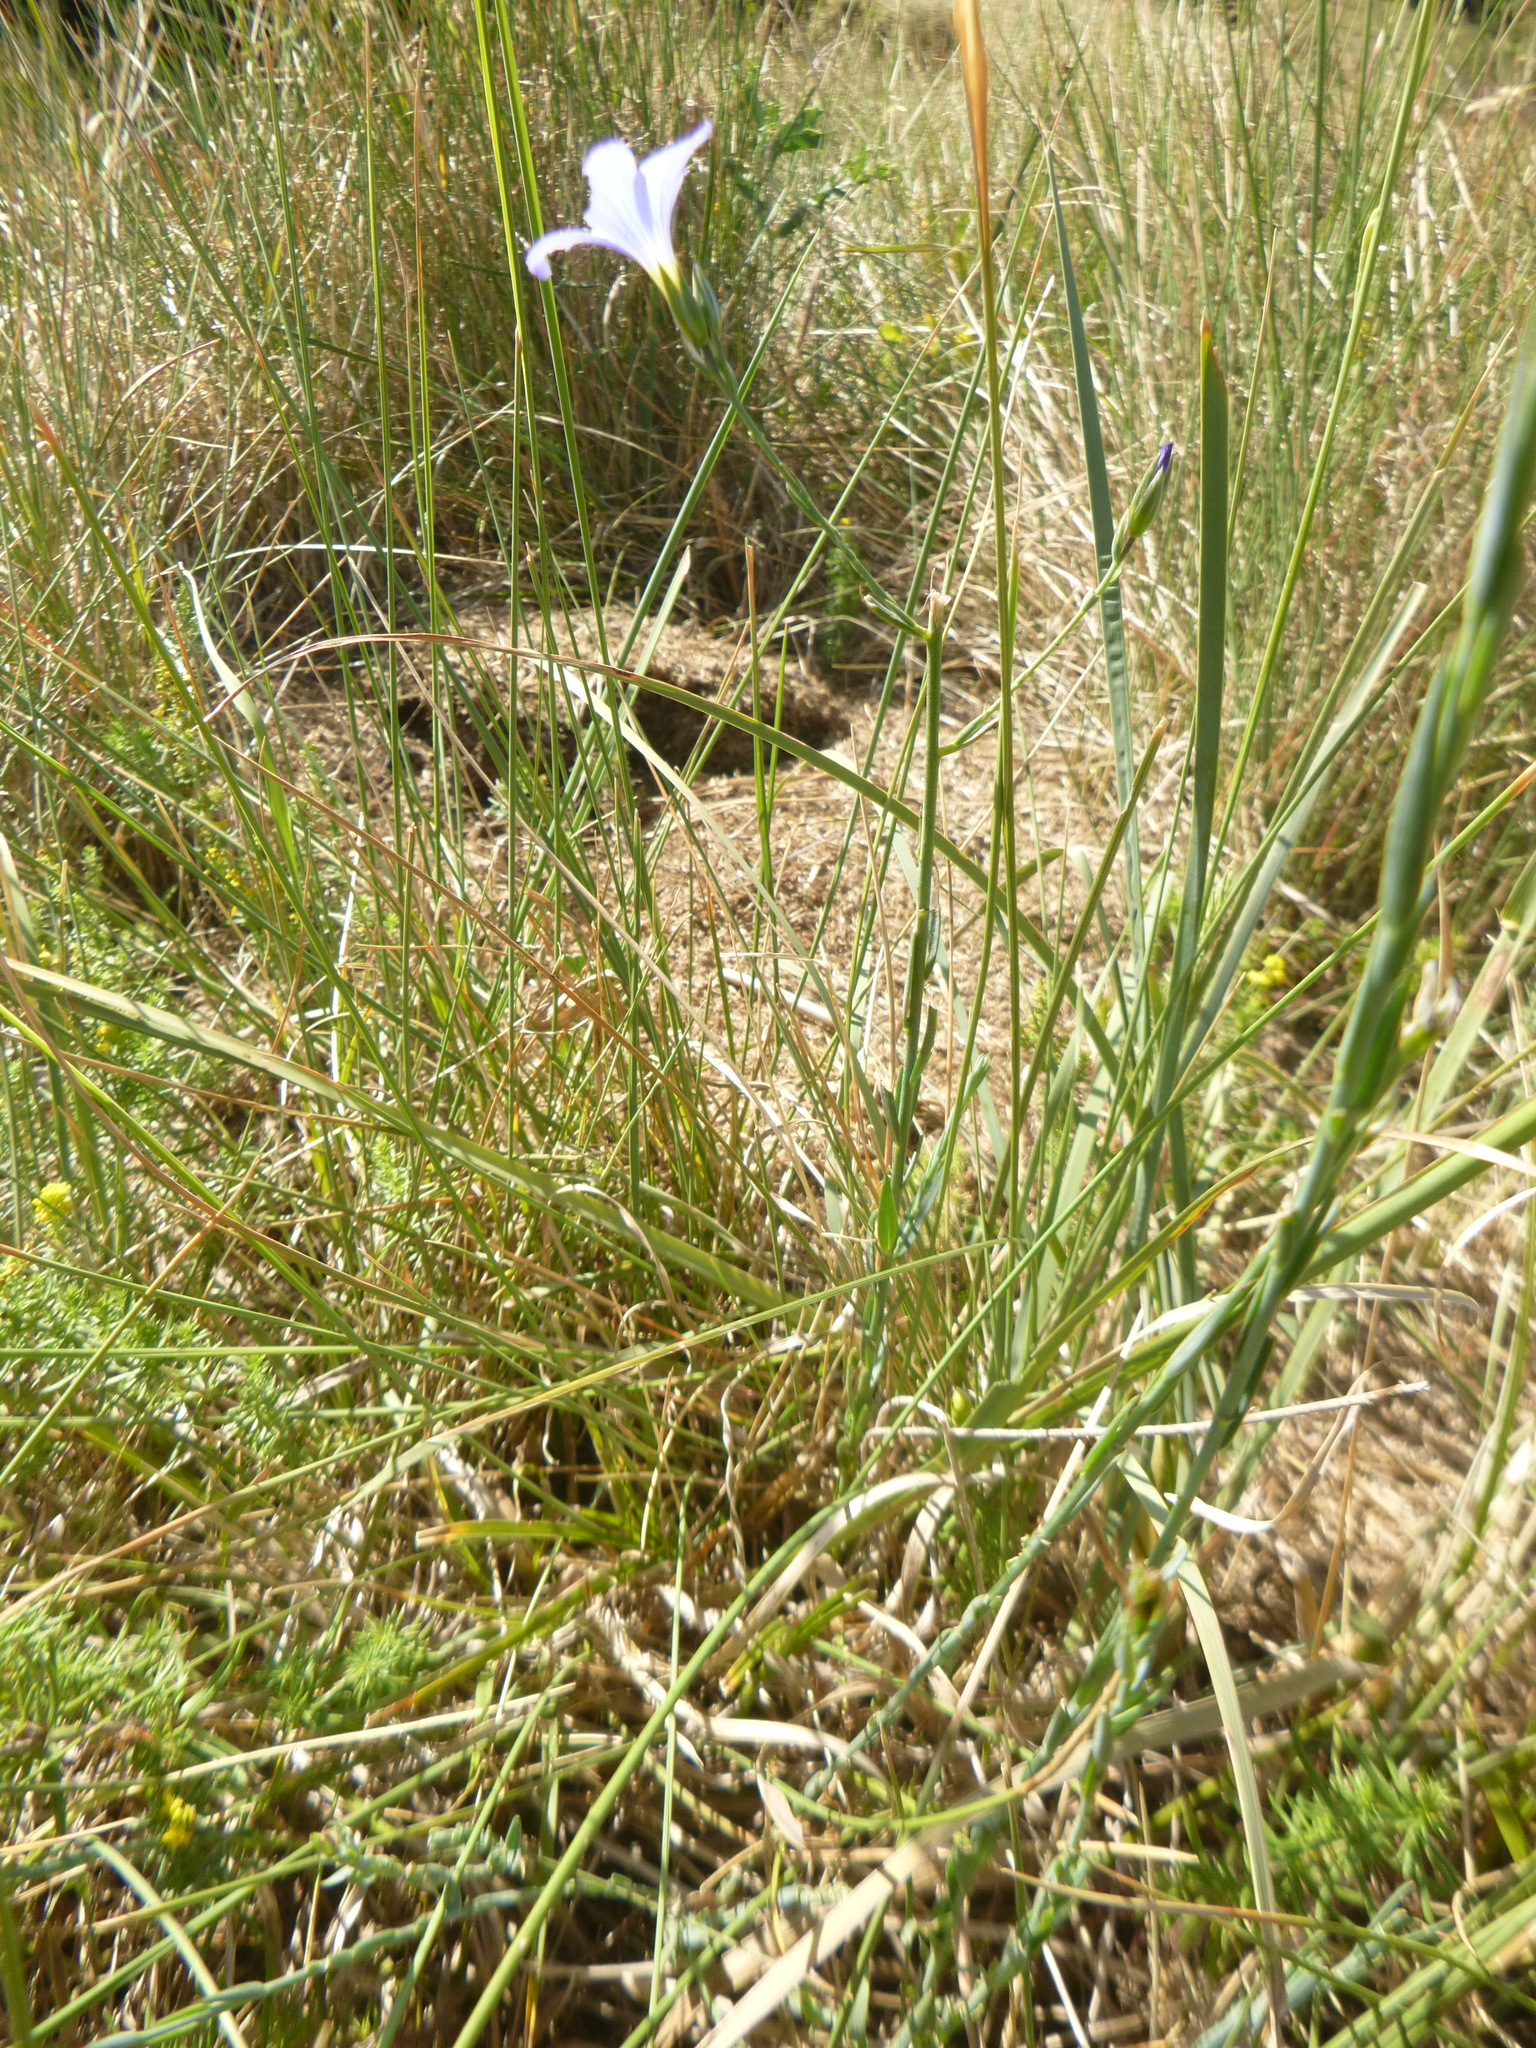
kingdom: Plantae
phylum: Tracheophyta
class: Magnoliopsida
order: Malpighiales
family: Linaceae
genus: Linum
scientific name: Linum narbonense
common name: Flax
